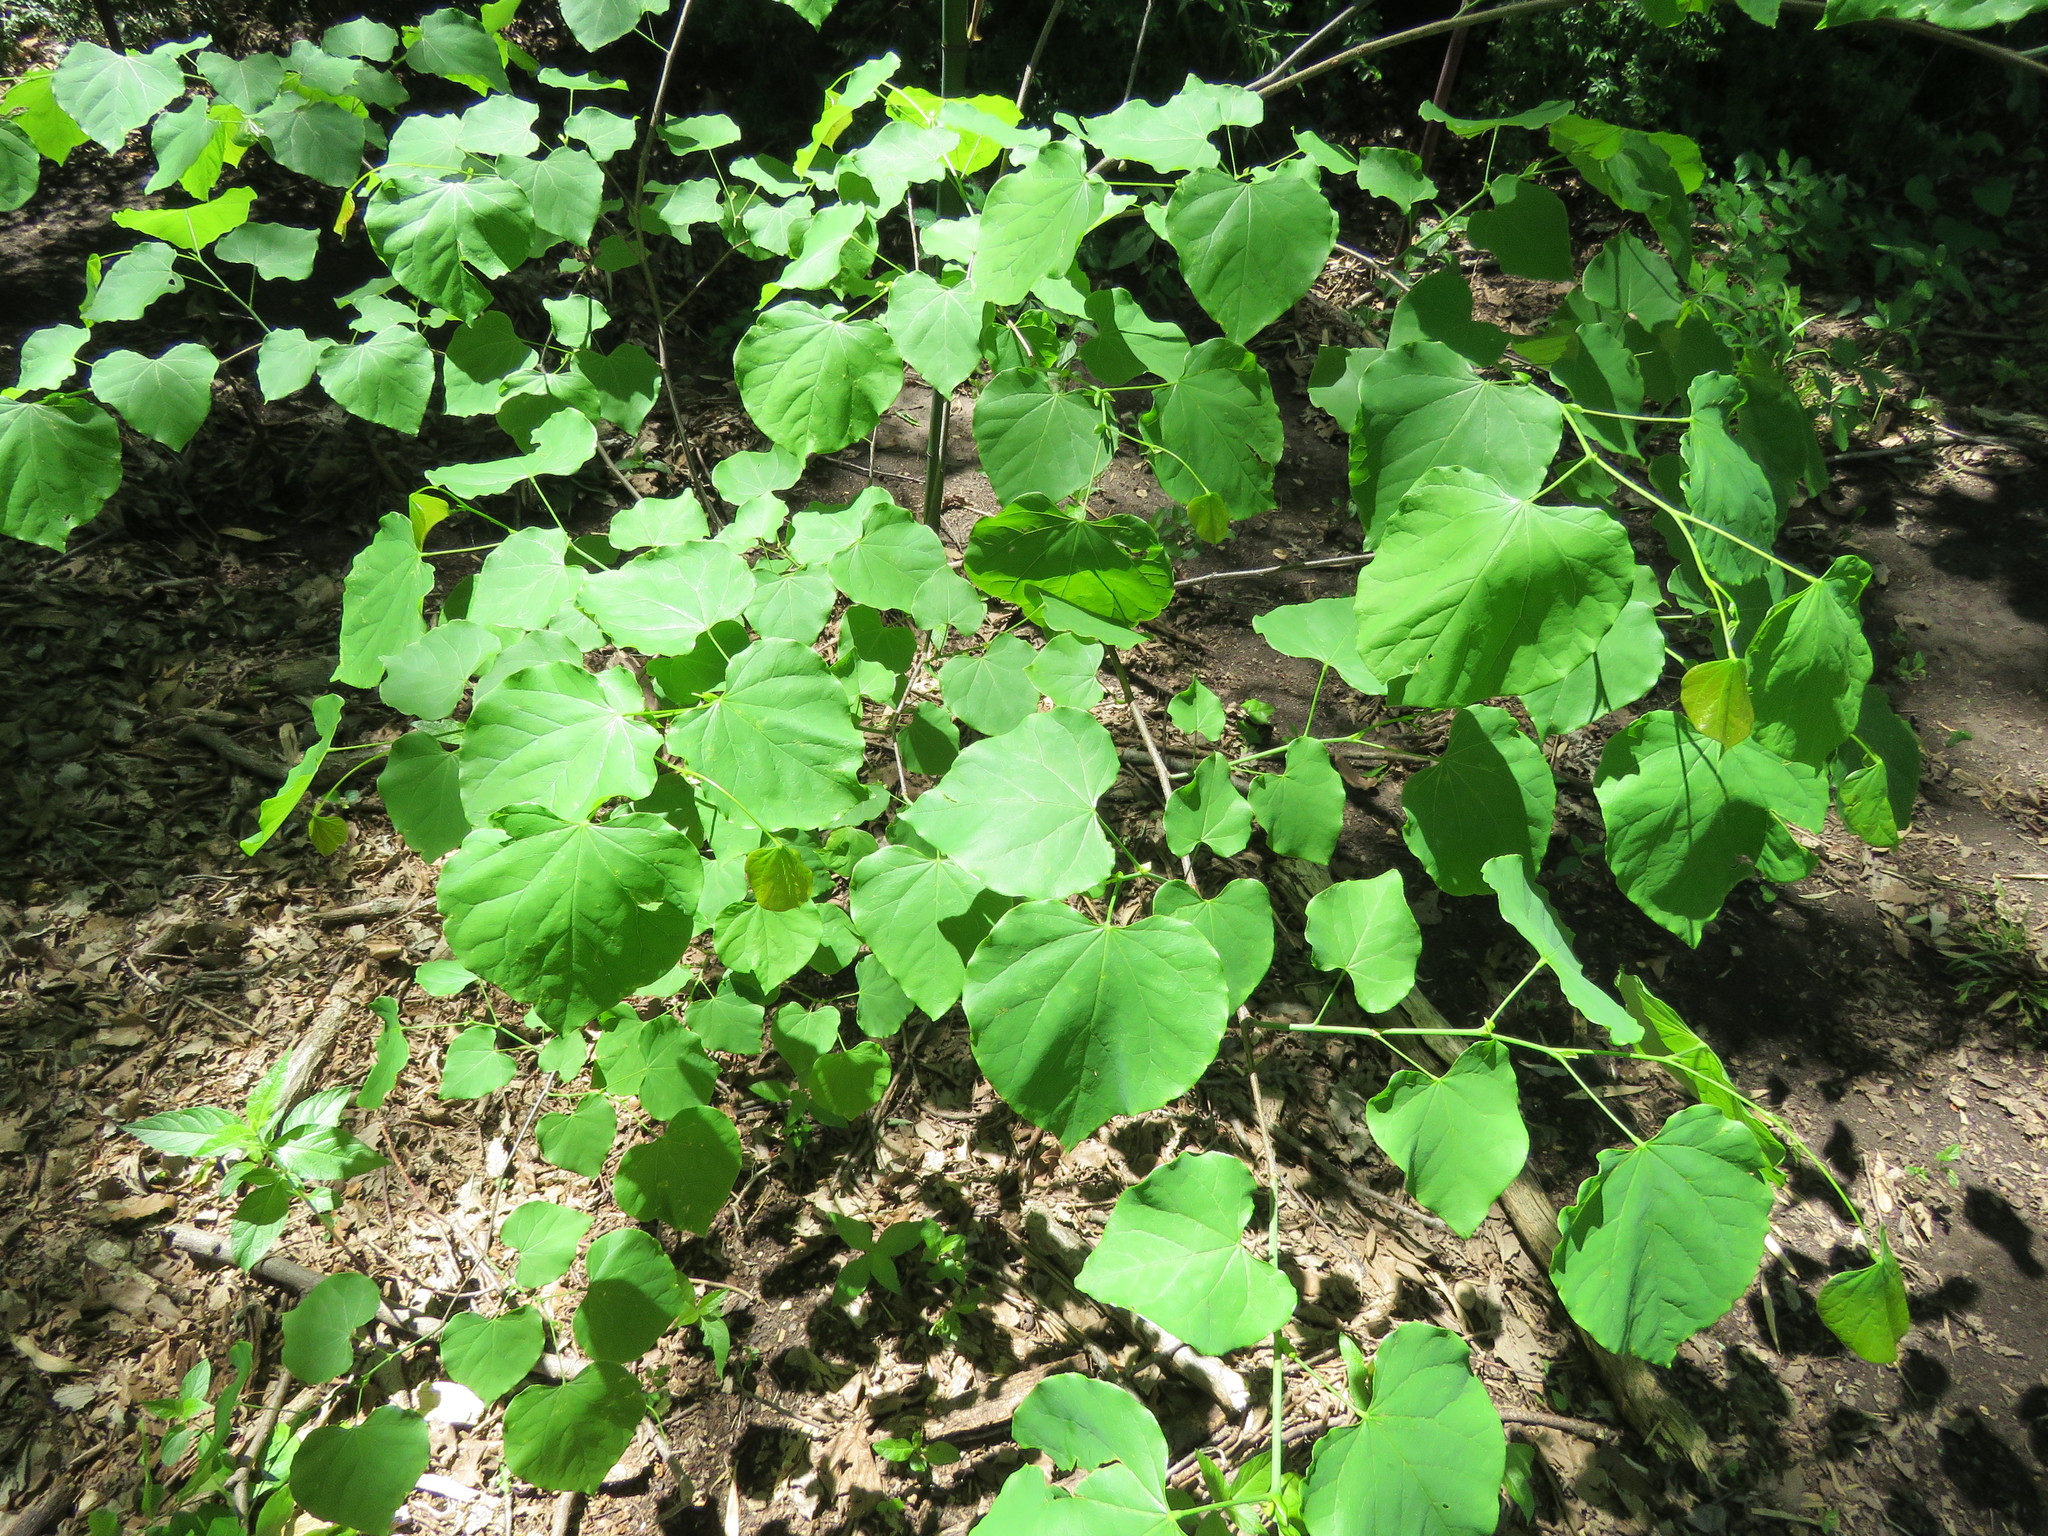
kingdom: Plantae
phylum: Tracheophyta
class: Magnoliopsida
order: Fabales
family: Fabaceae
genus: Cercis
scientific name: Cercis canadensis
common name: Eastern redbud
